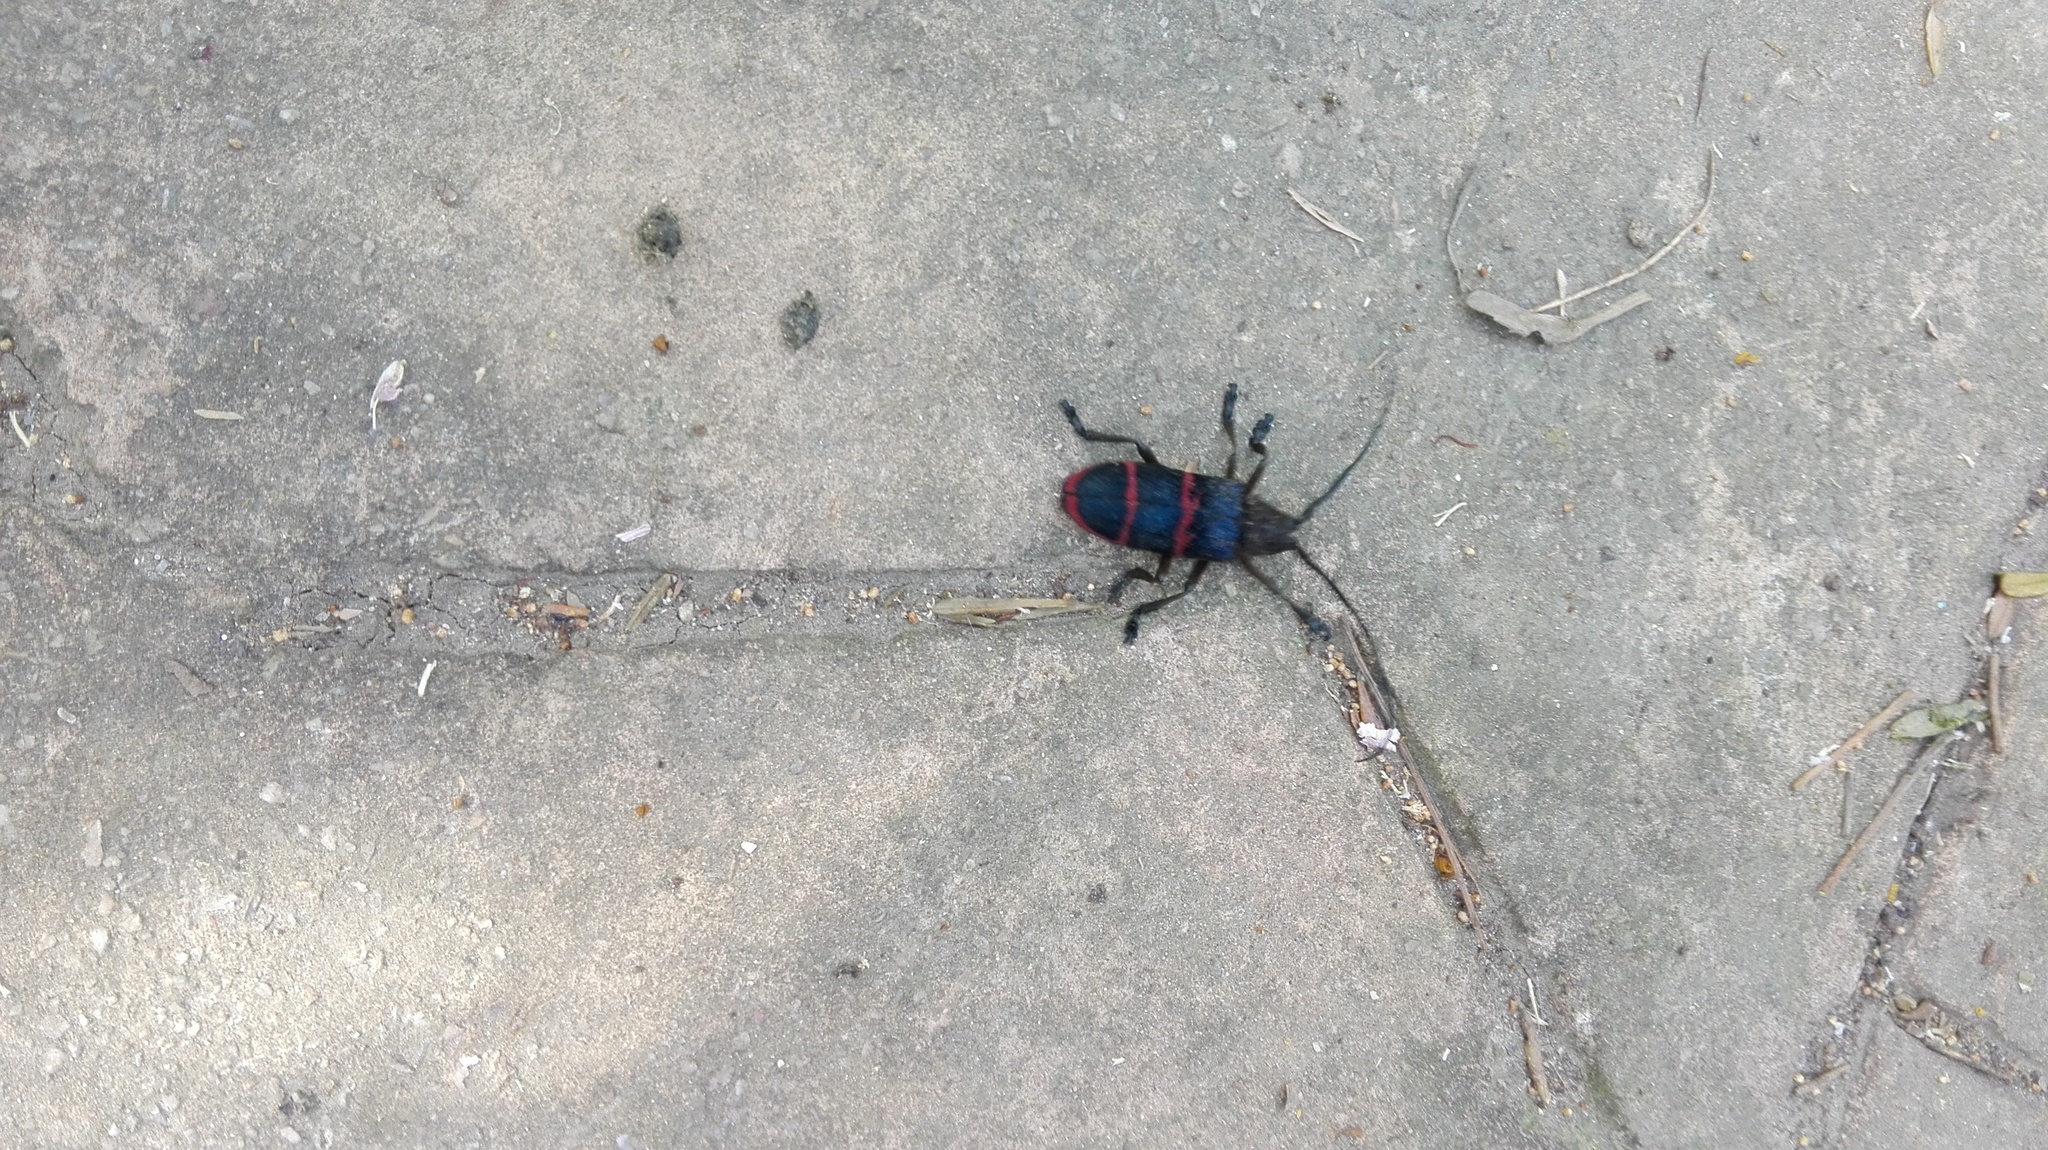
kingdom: Animalia
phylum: Arthropoda
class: Insecta
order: Coleoptera
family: Cerambycidae
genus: Ceroplesis
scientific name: Ceroplesis sumptuosa
